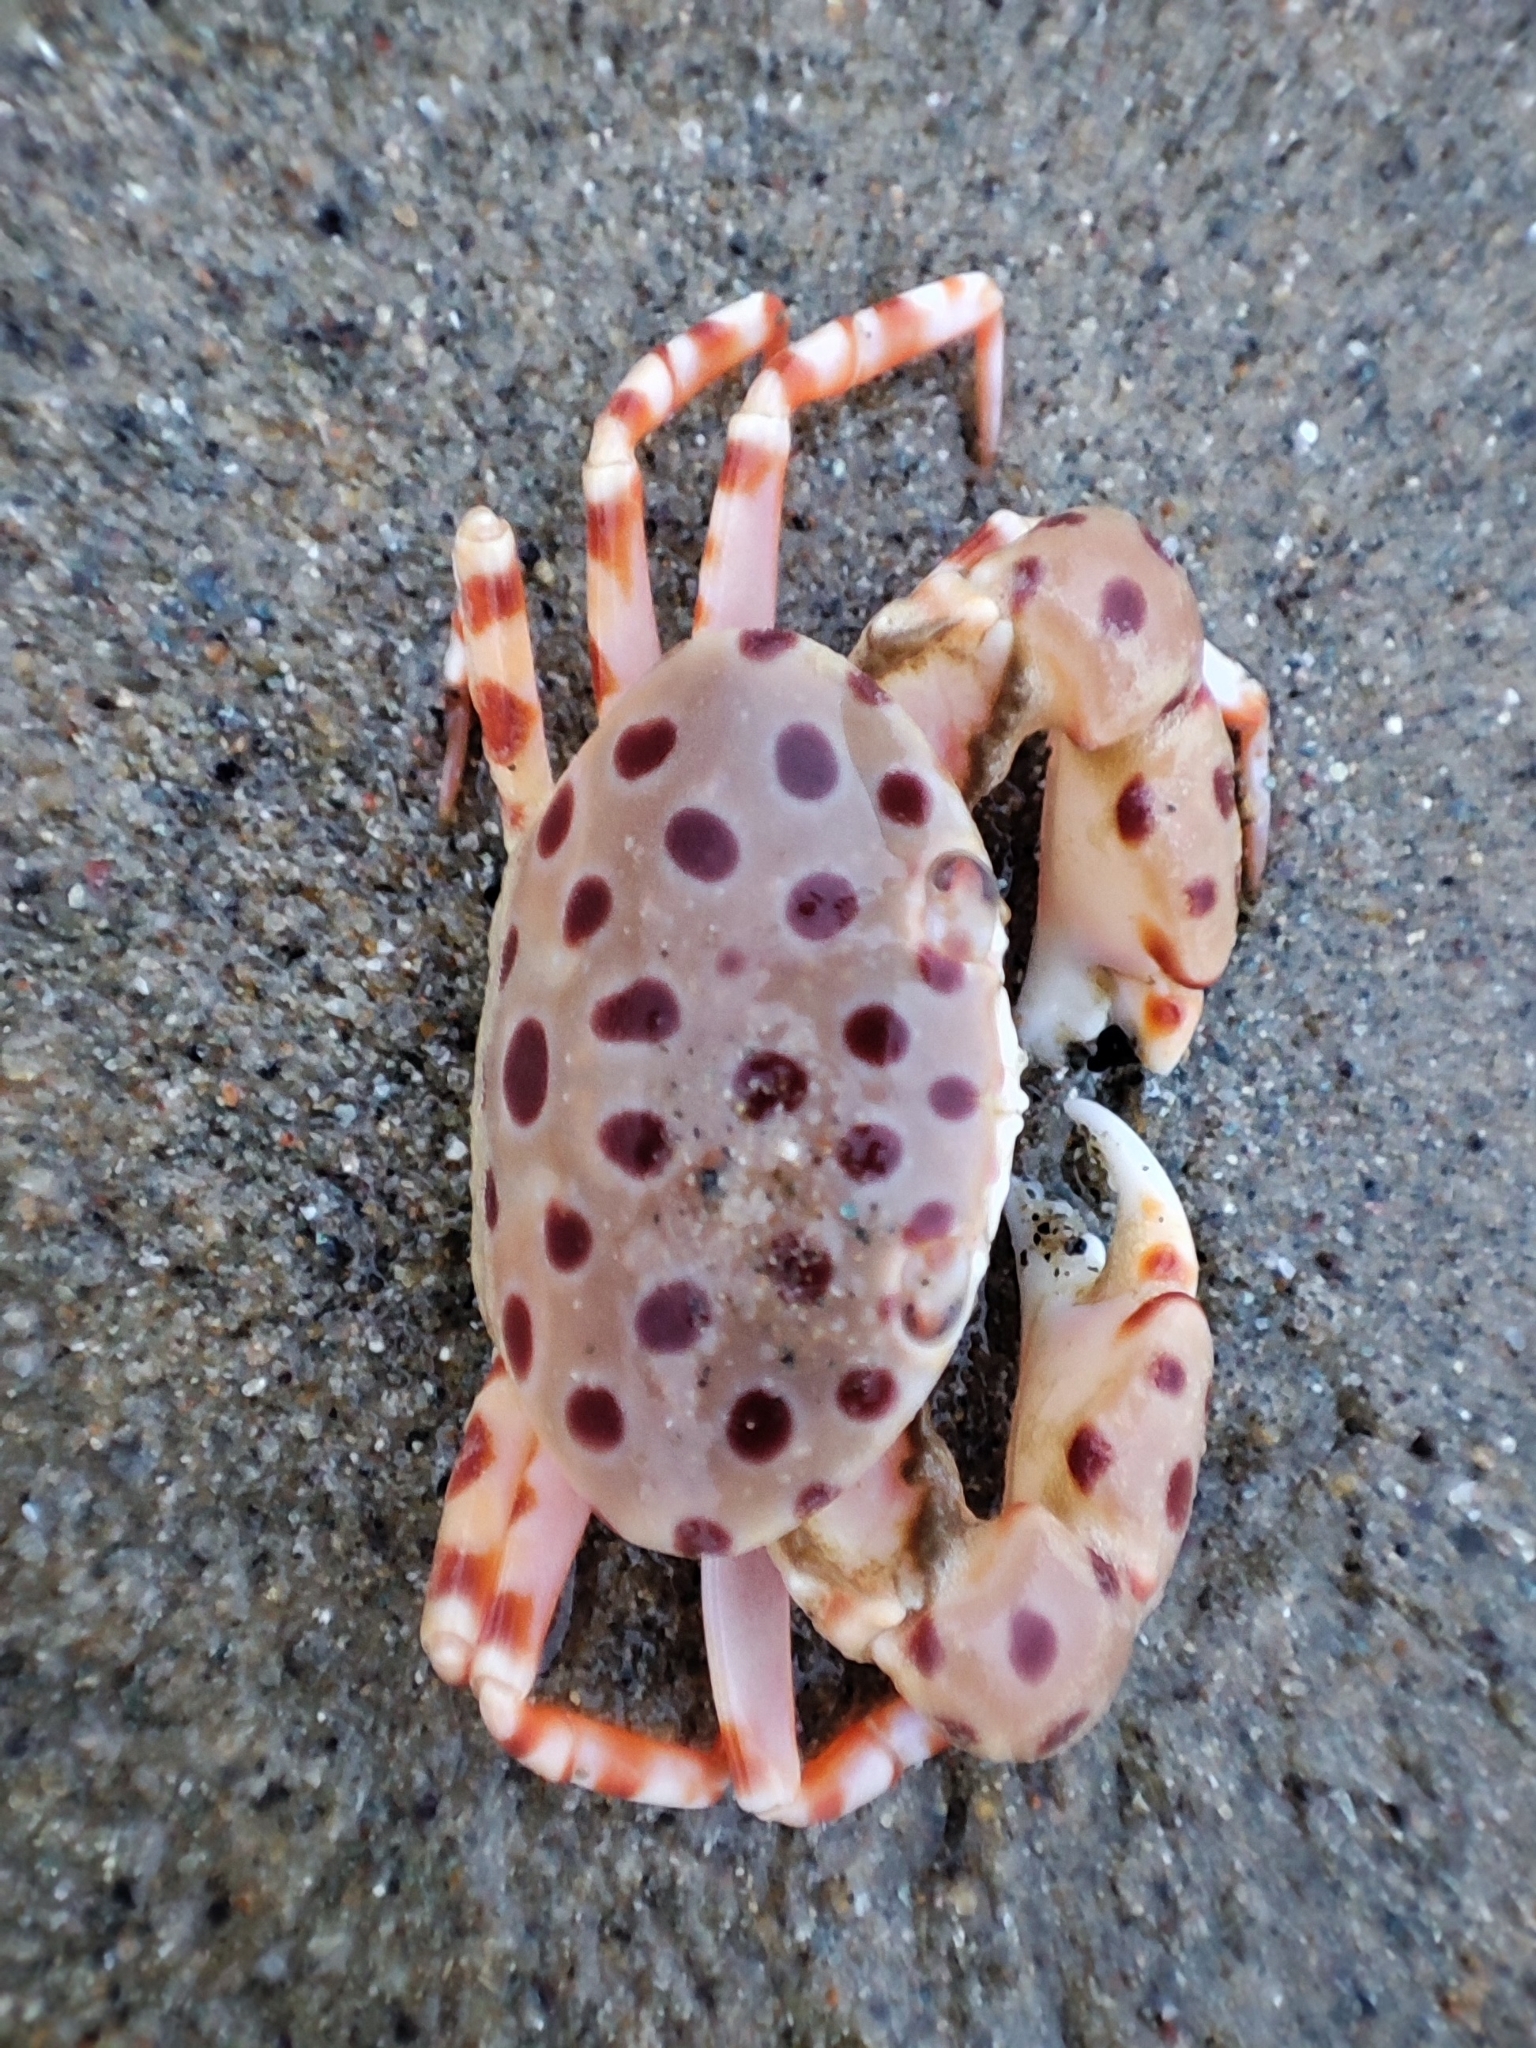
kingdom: Animalia
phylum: Arthropoda
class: Malacostraca
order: Decapoda
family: Xanthidae
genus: Liagore
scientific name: Liagore rubromaculata
